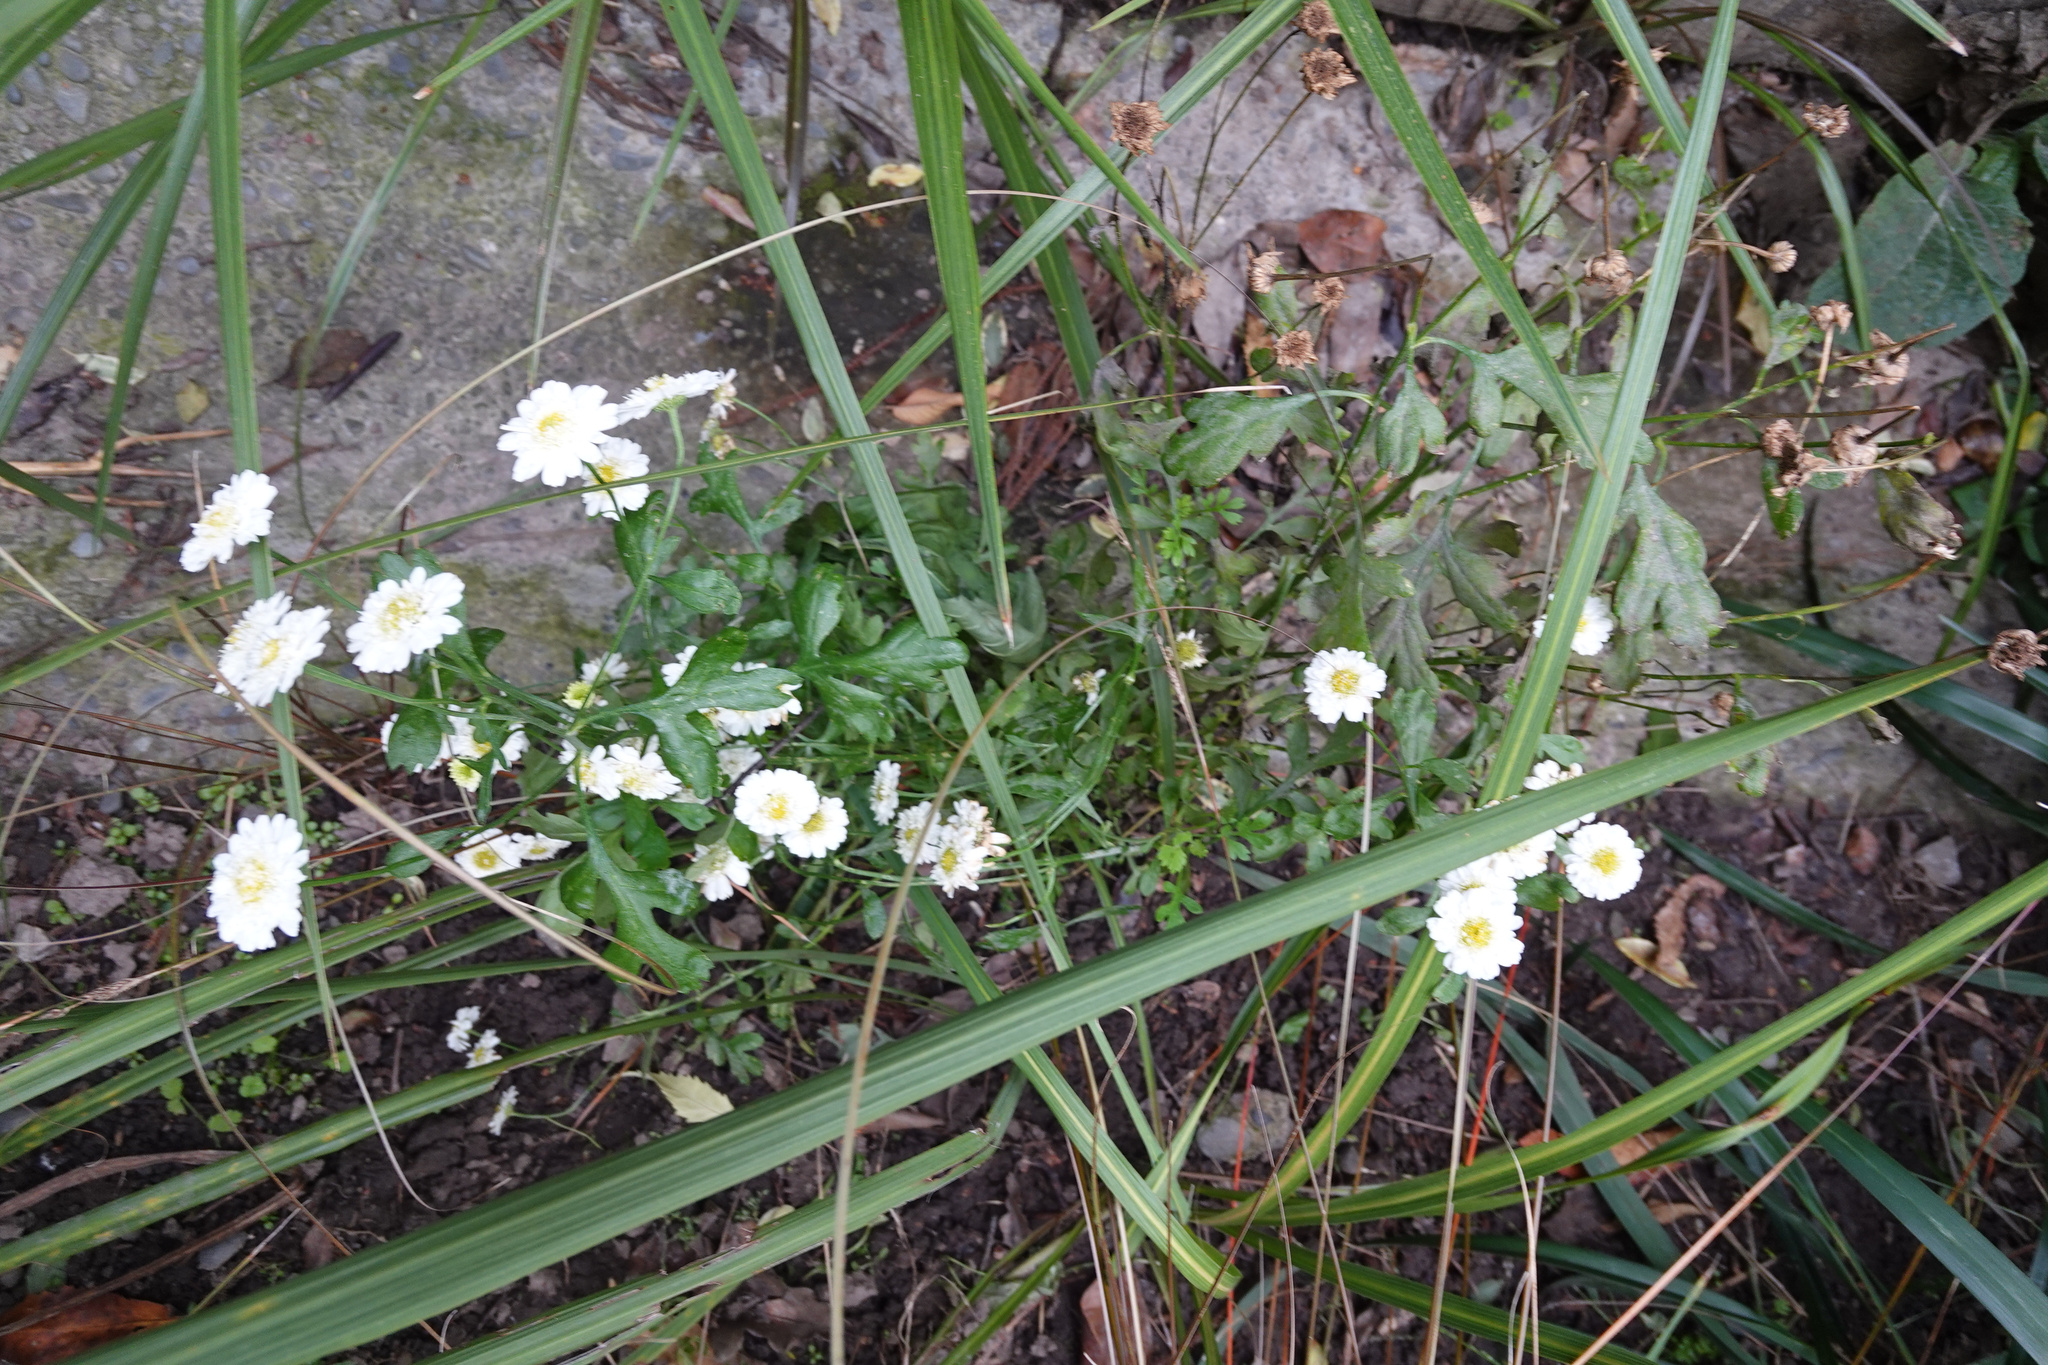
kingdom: Plantae
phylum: Tracheophyta
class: Magnoliopsida
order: Asterales
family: Asteraceae
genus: Tanacetum
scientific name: Tanacetum parthenium
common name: Feverfew
